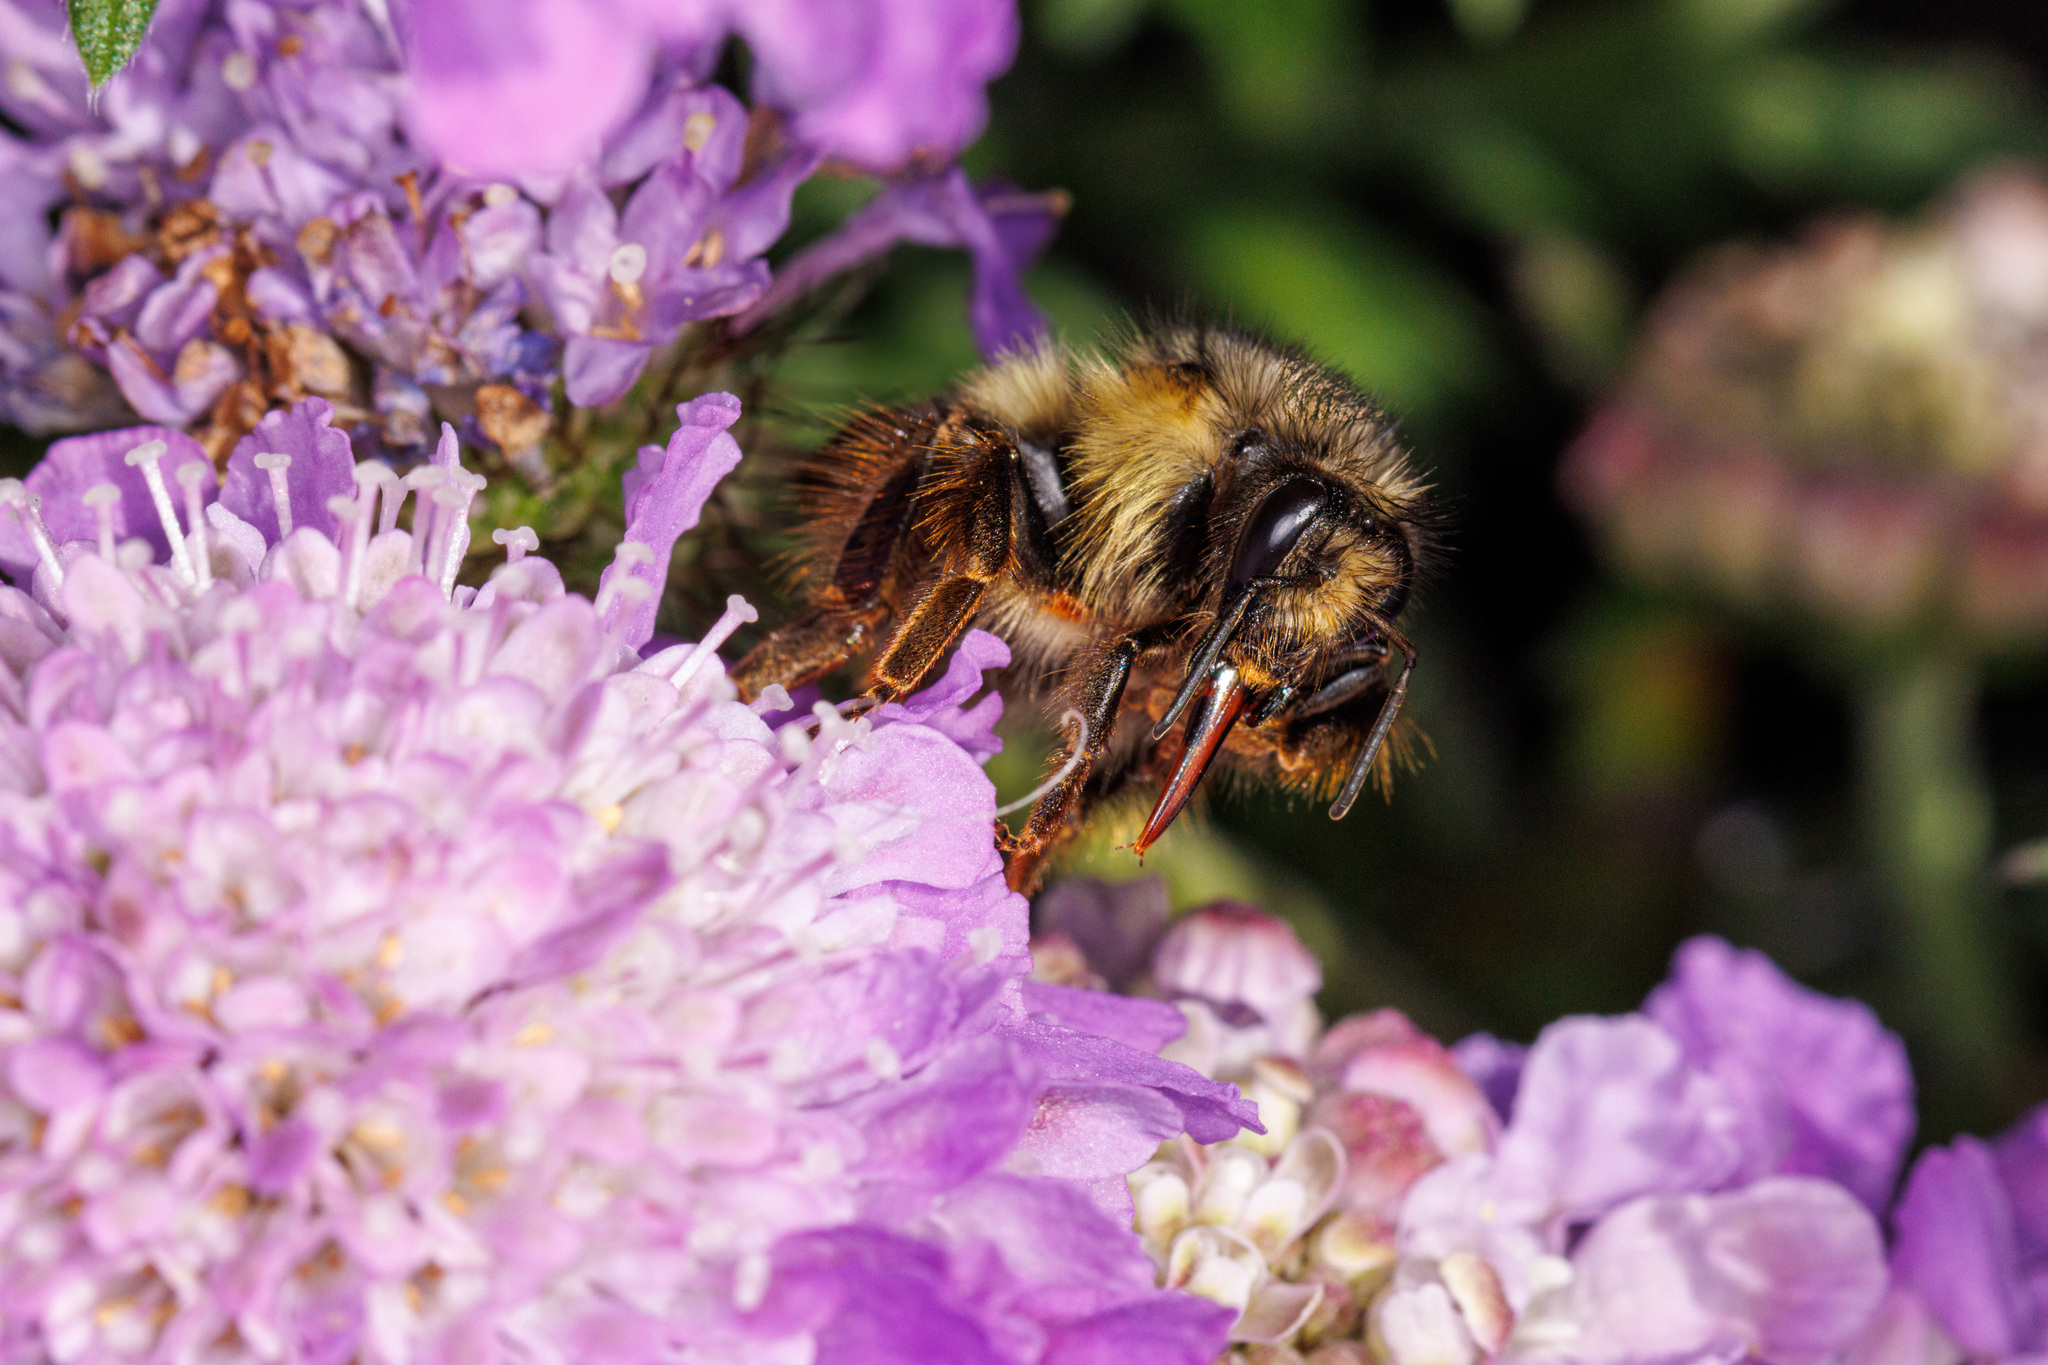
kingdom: Animalia
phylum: Arthropoda
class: Insecta
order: Hymenoptera
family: Apidae
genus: Bombus
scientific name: Bombus mixtus
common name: Fuzzy-horned bumble bee
